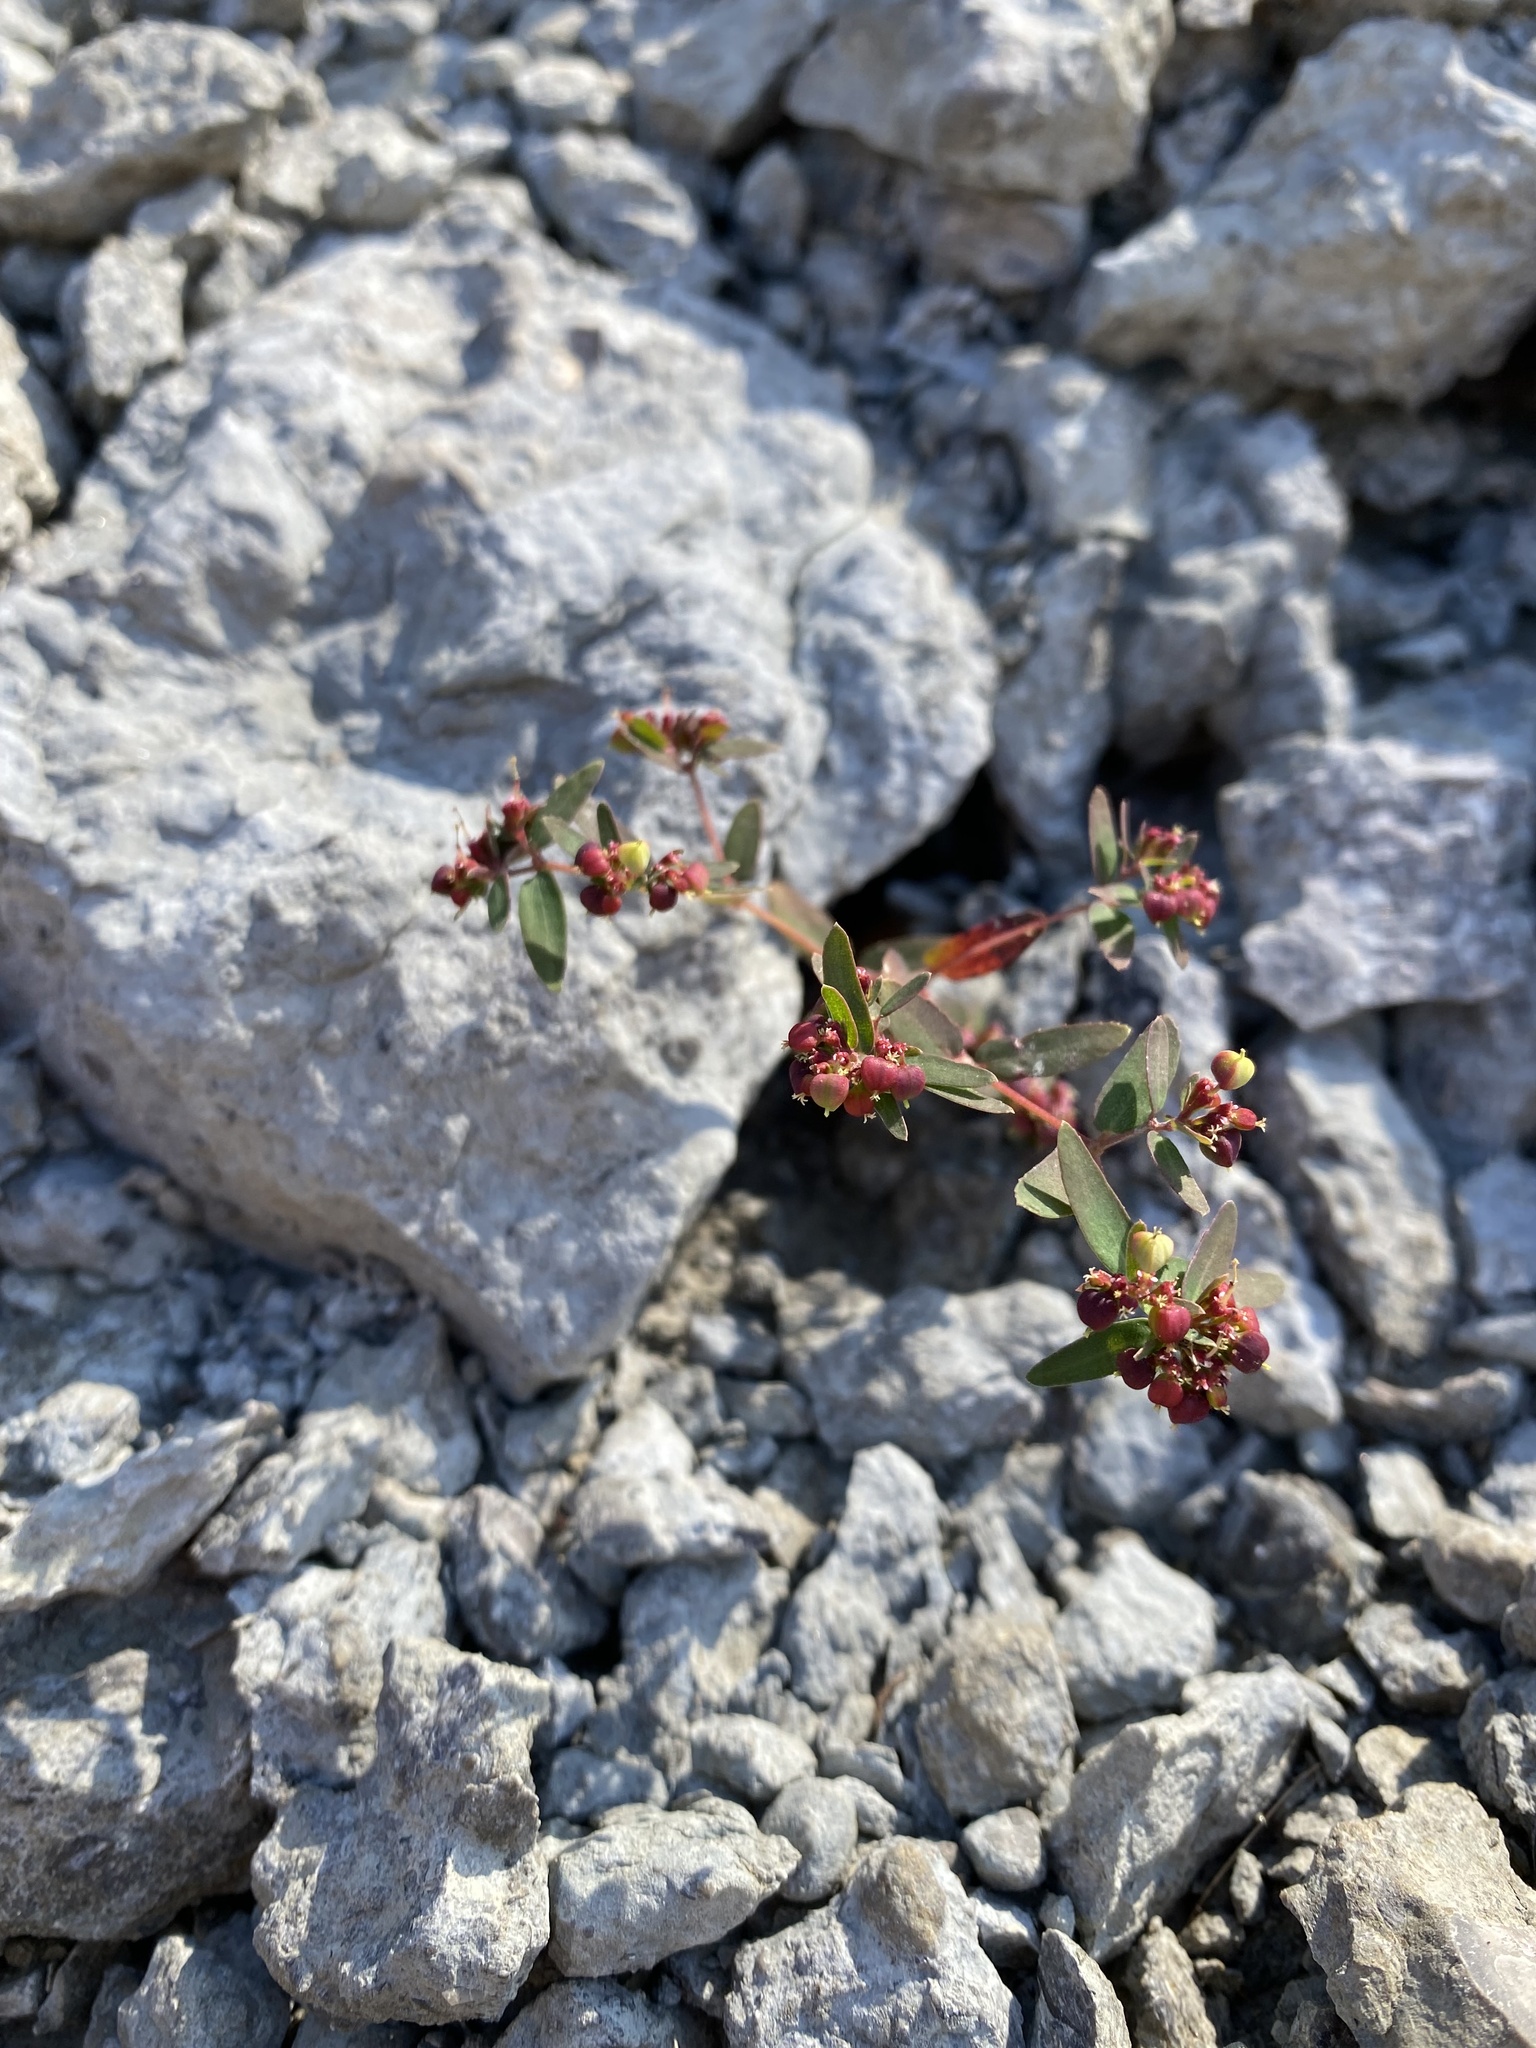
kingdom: Plantae
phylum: Tracheophyta
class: Magnoliopsida
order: Malpighiales
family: Euphorbiaceae
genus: Euphorbia
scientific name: Euphorbia nutans
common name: Eyebane
